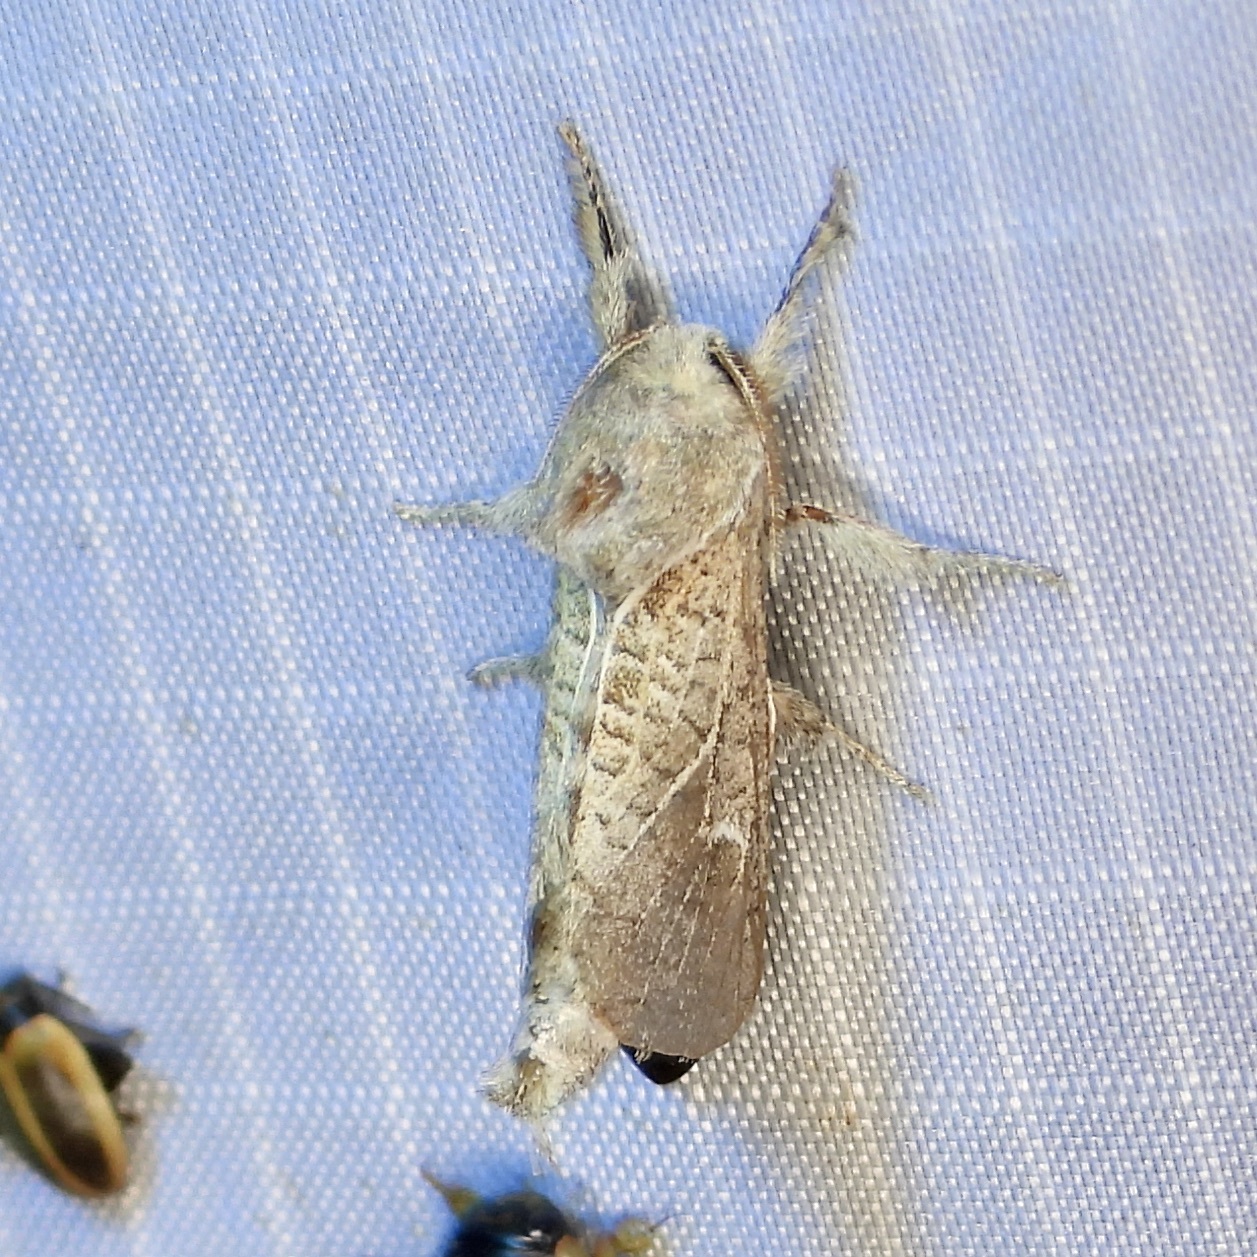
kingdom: Animalia
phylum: Arthropoda
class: Insecta
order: Lepidoptera
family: Cossidae
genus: Givira
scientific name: Givira anna
